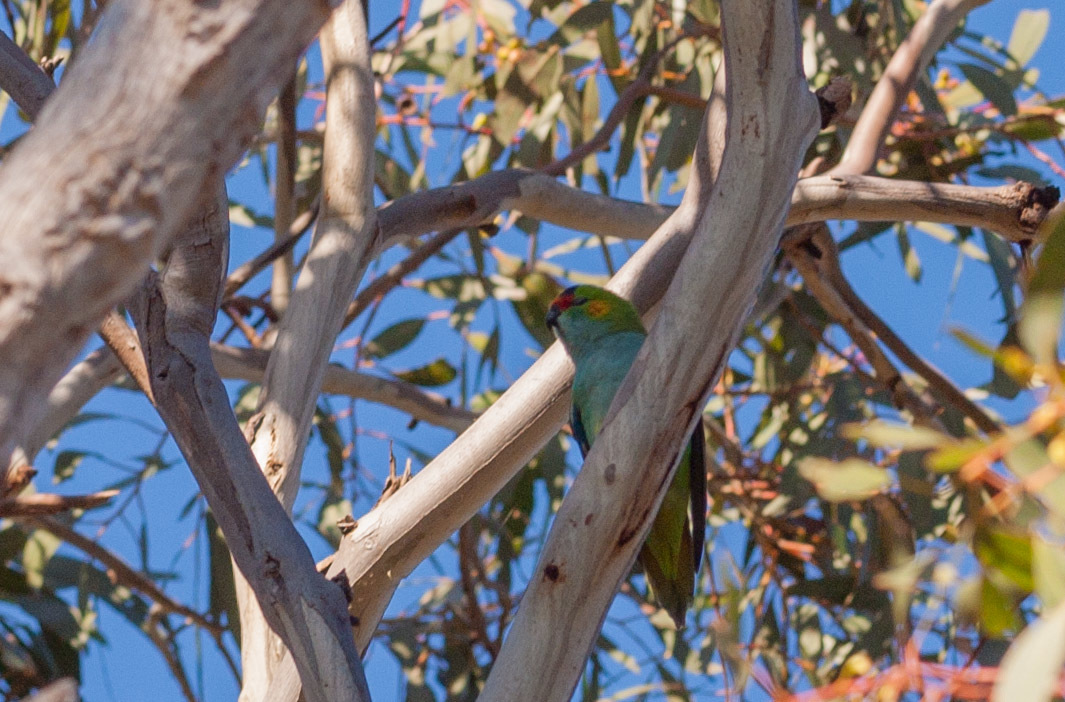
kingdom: Animalia
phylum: Chordata
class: Aves
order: Psittaciformes
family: Psittaculidae
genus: Parvipsitta
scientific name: Parvipsitta porphyrocephala
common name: Purple-crowned lorikeet
